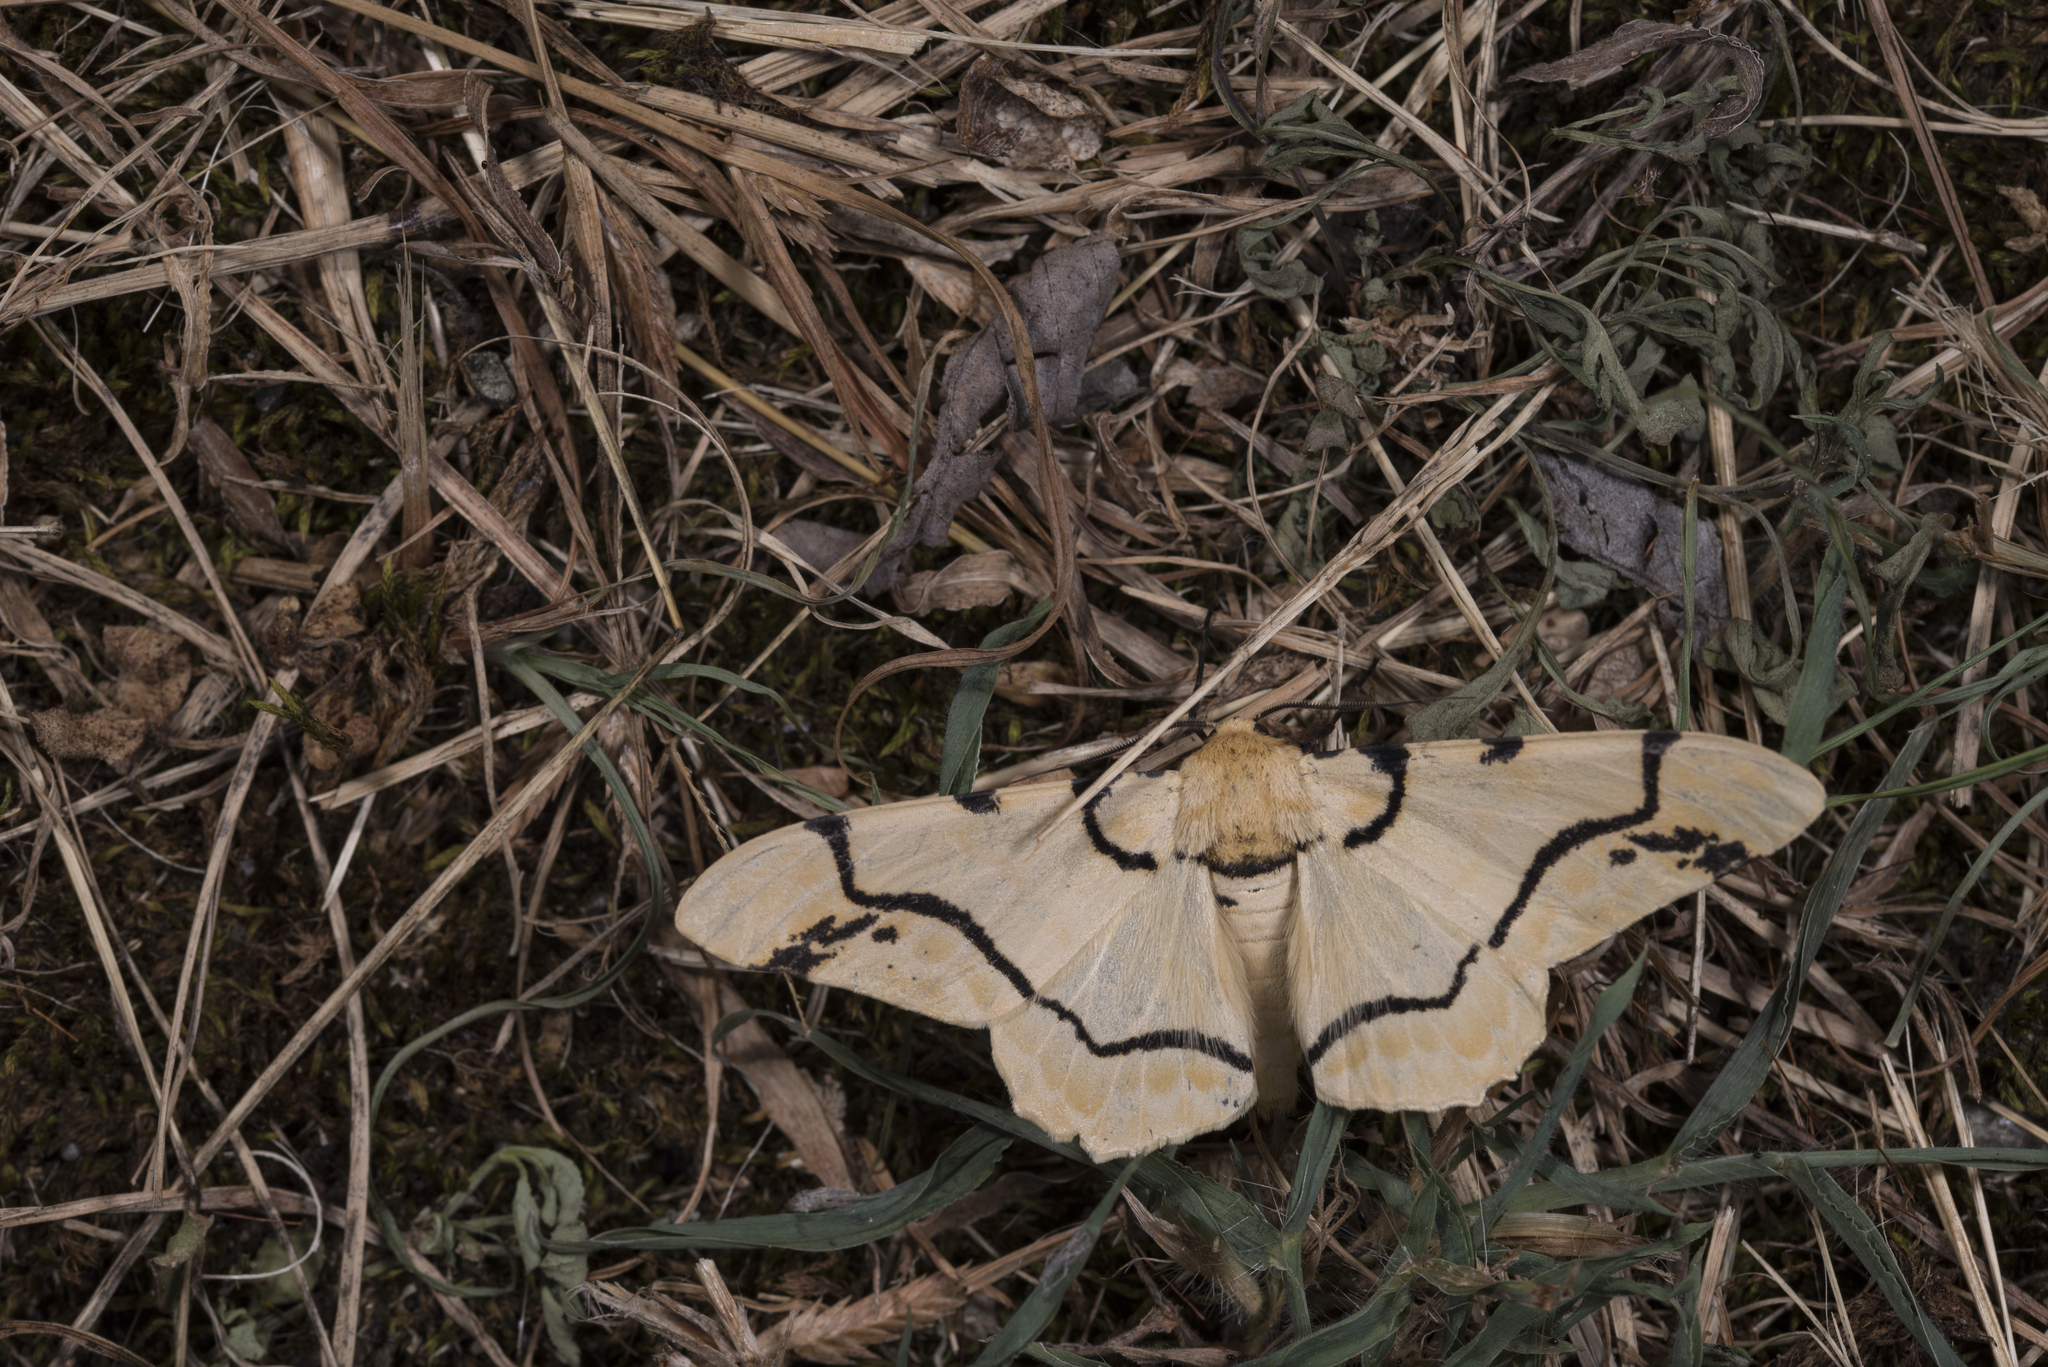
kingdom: Animalia
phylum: Arthropoda
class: Insecta
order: Lepidoptera
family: Geometridae
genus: Biston
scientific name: Biston perclara
